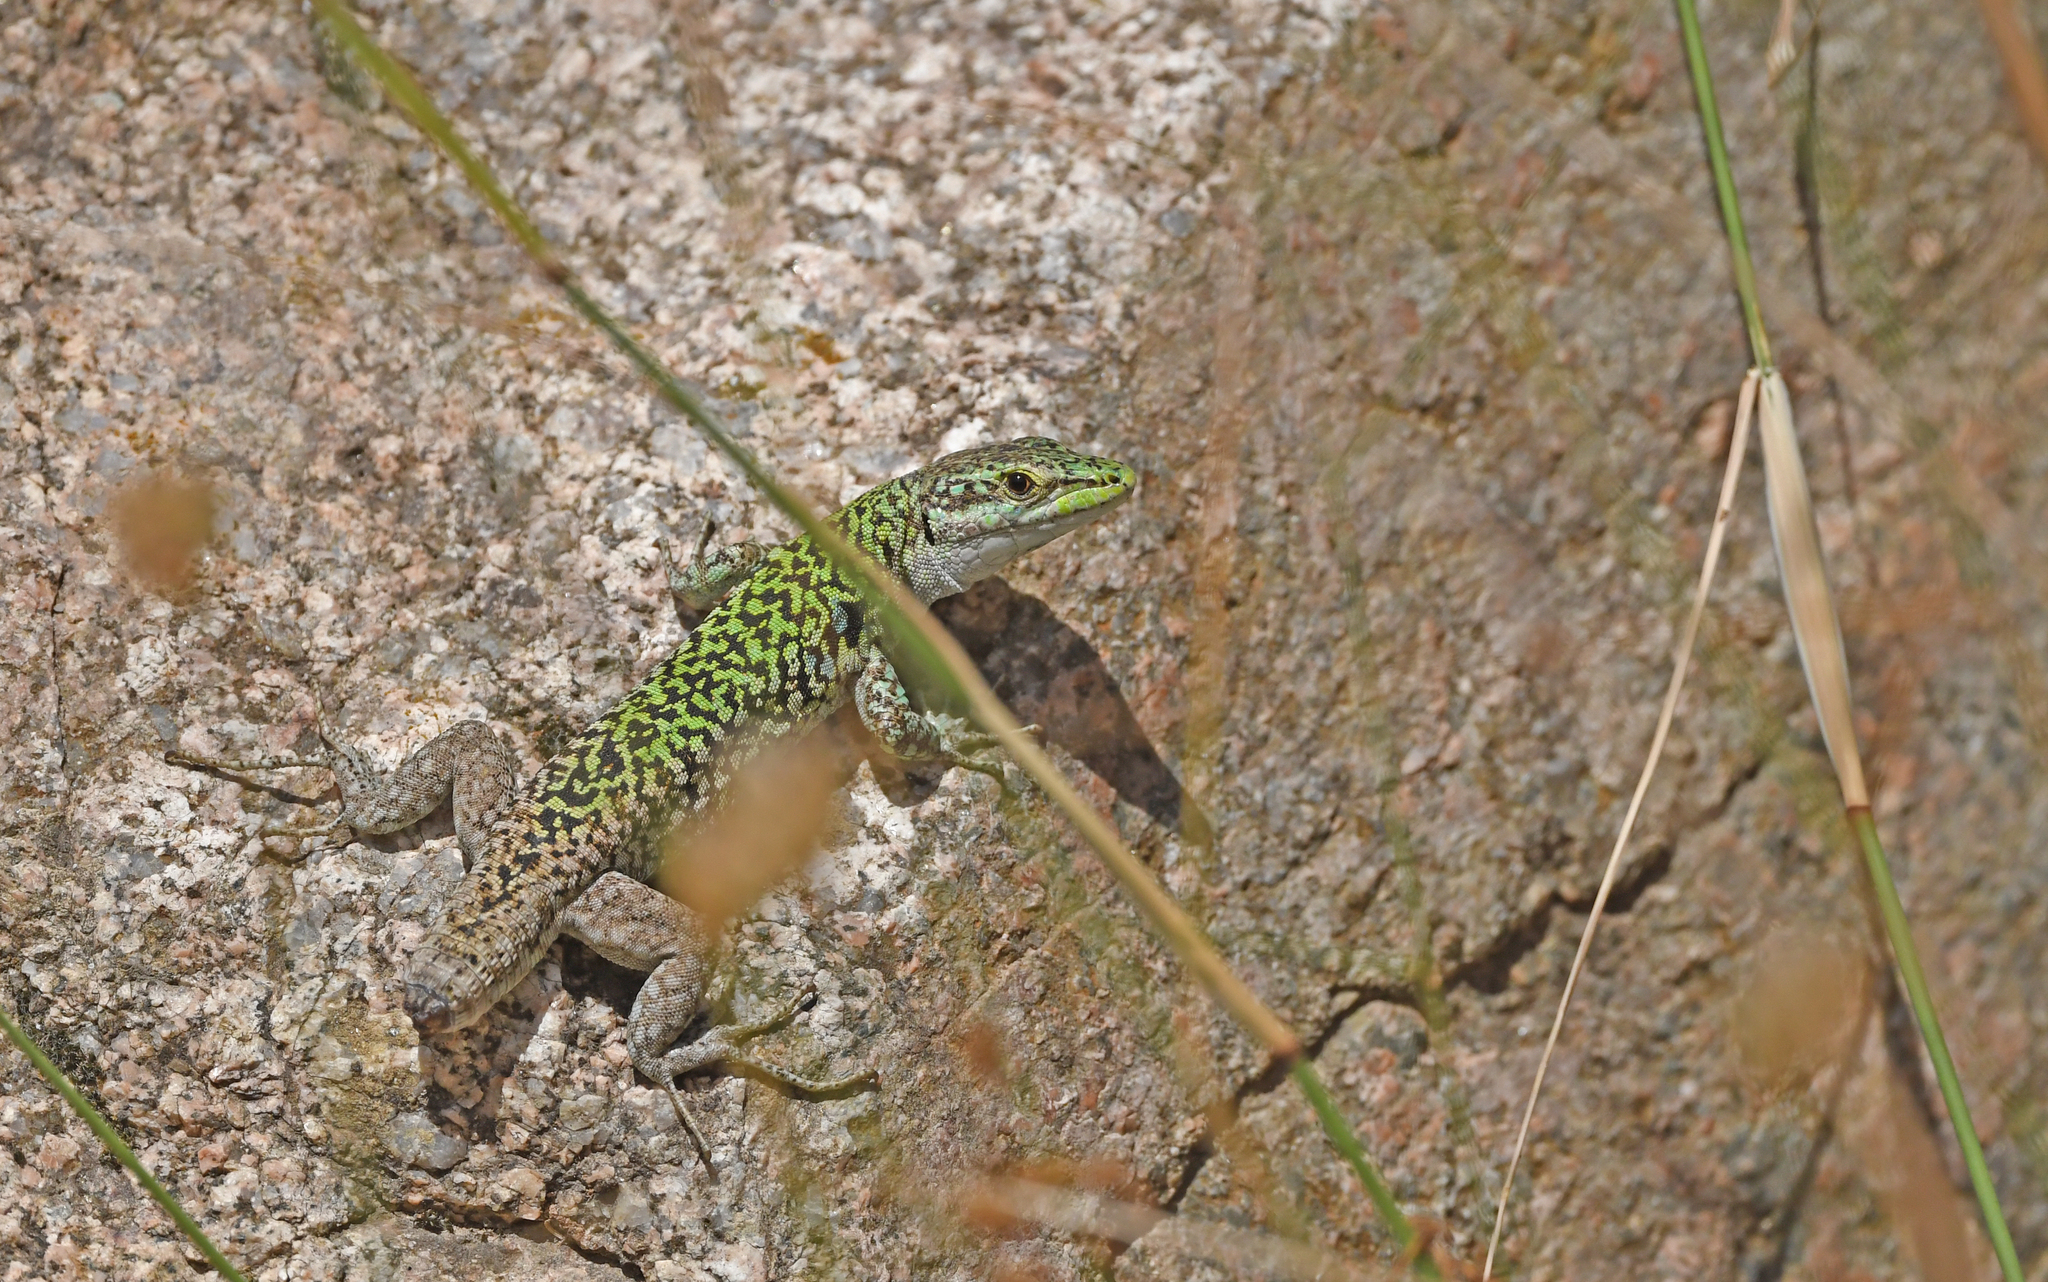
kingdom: Animalia
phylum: Chordata
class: Squamata
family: Lacertidae
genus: Podarcis
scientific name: Podarcis siculus
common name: Italian wall lizard
